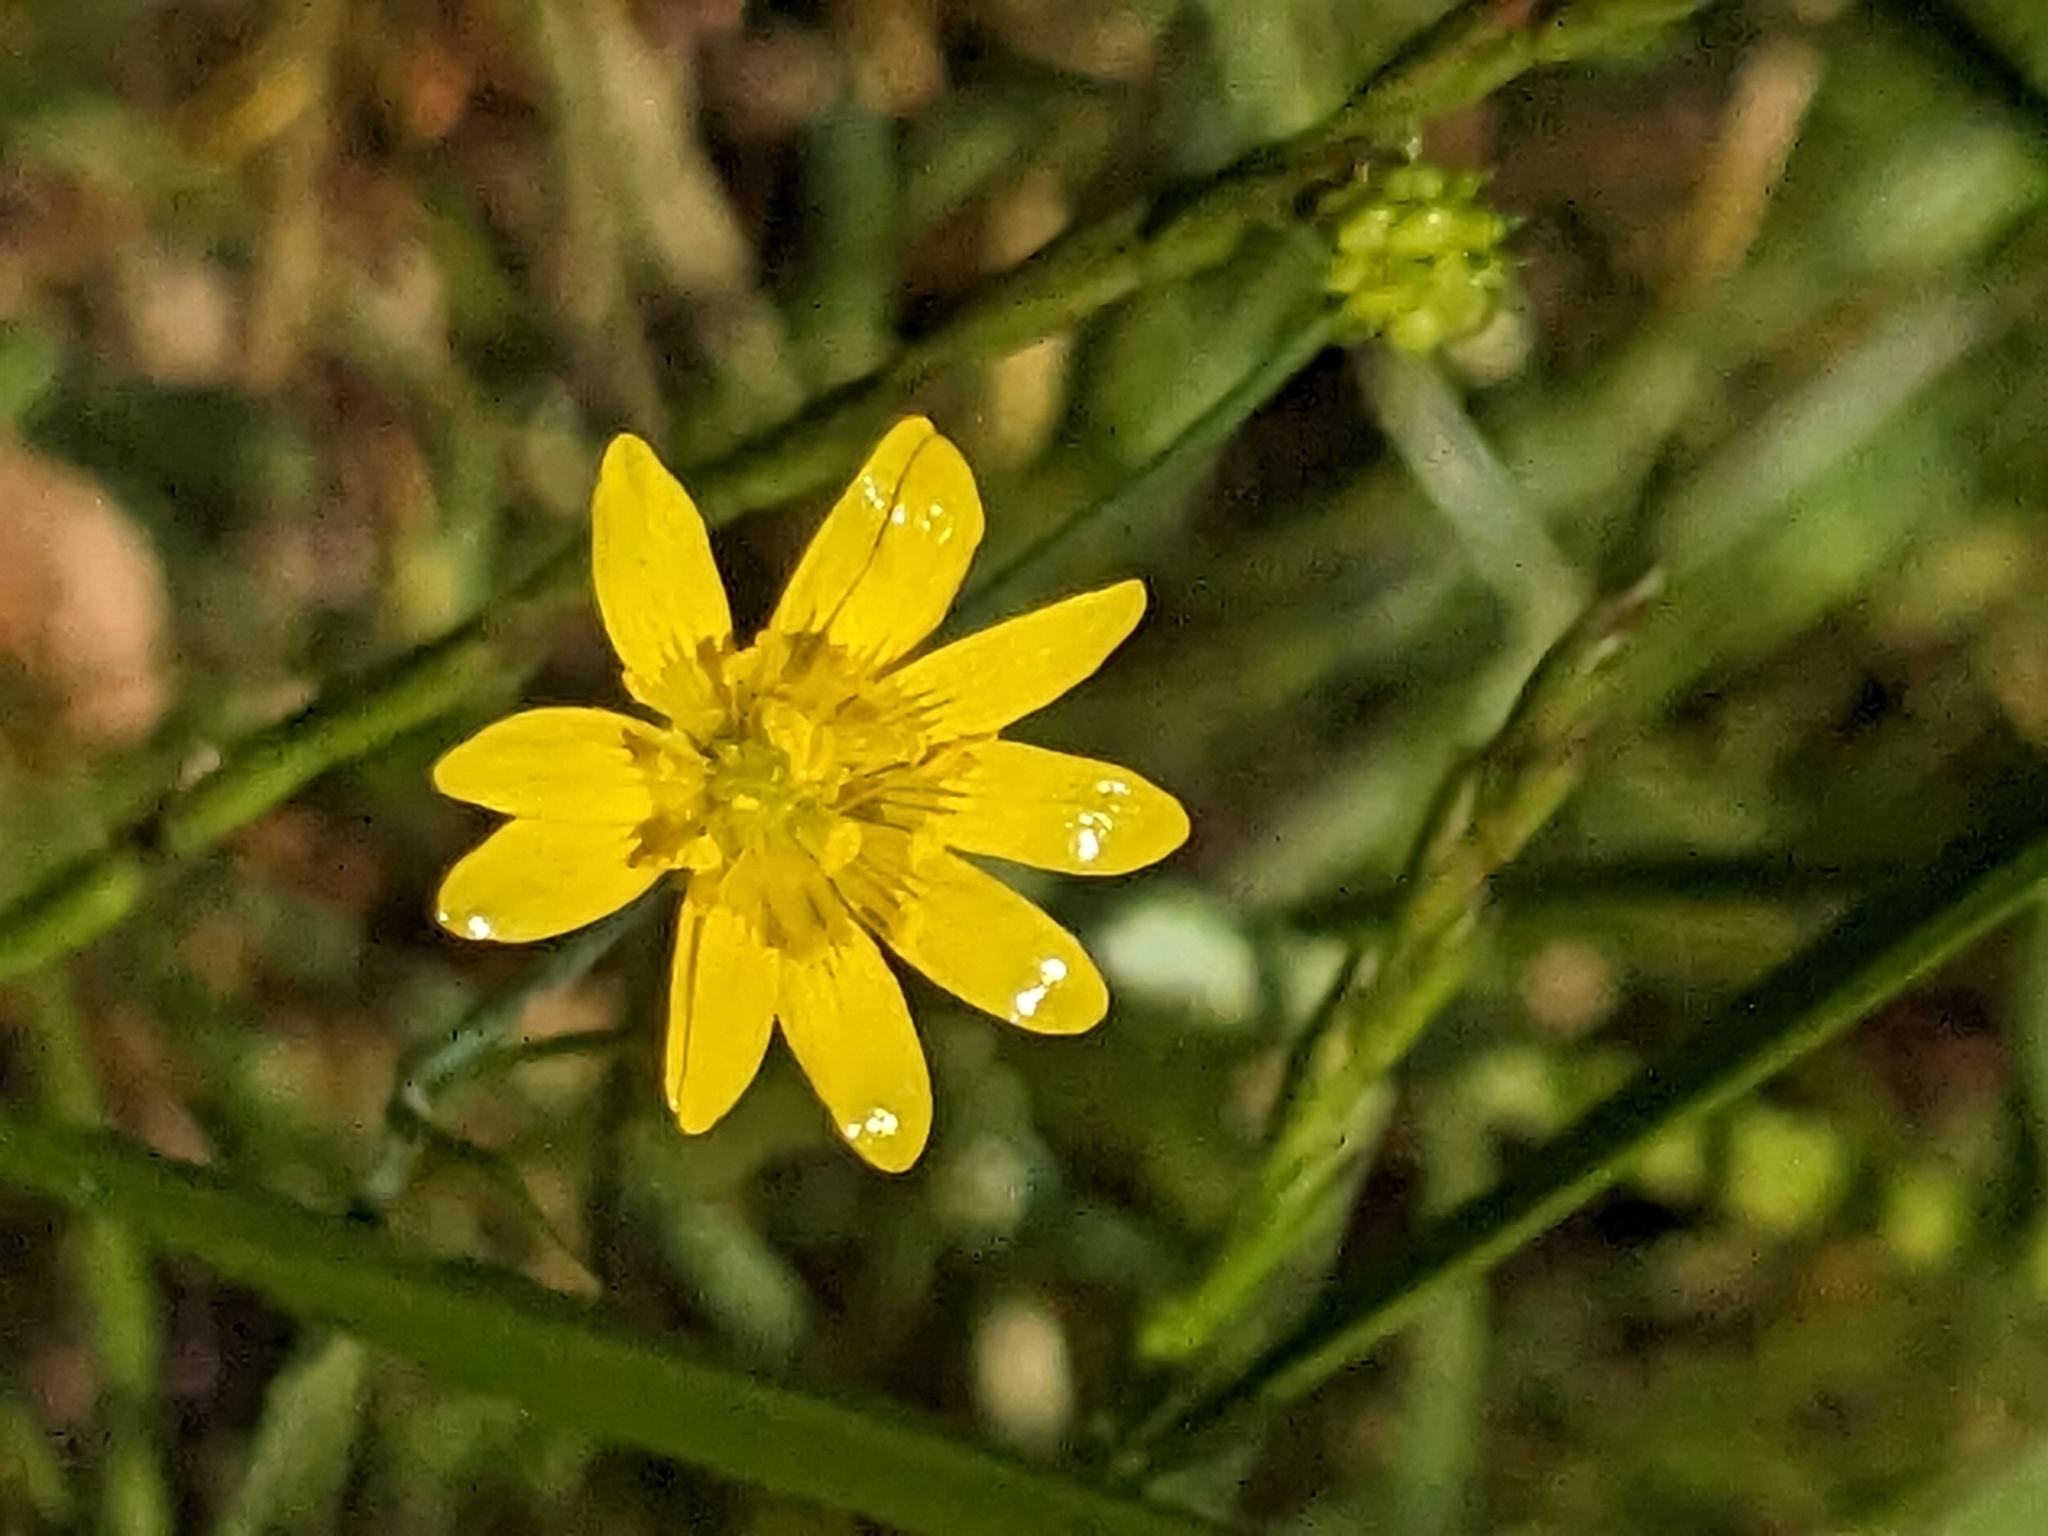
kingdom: Plantae
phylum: Tracheophyta
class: Magnoliopsida
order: Ranunculales
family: Ranunculaceae
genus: Ranunculus
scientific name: Ranunculus californicus
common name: California buttercup
